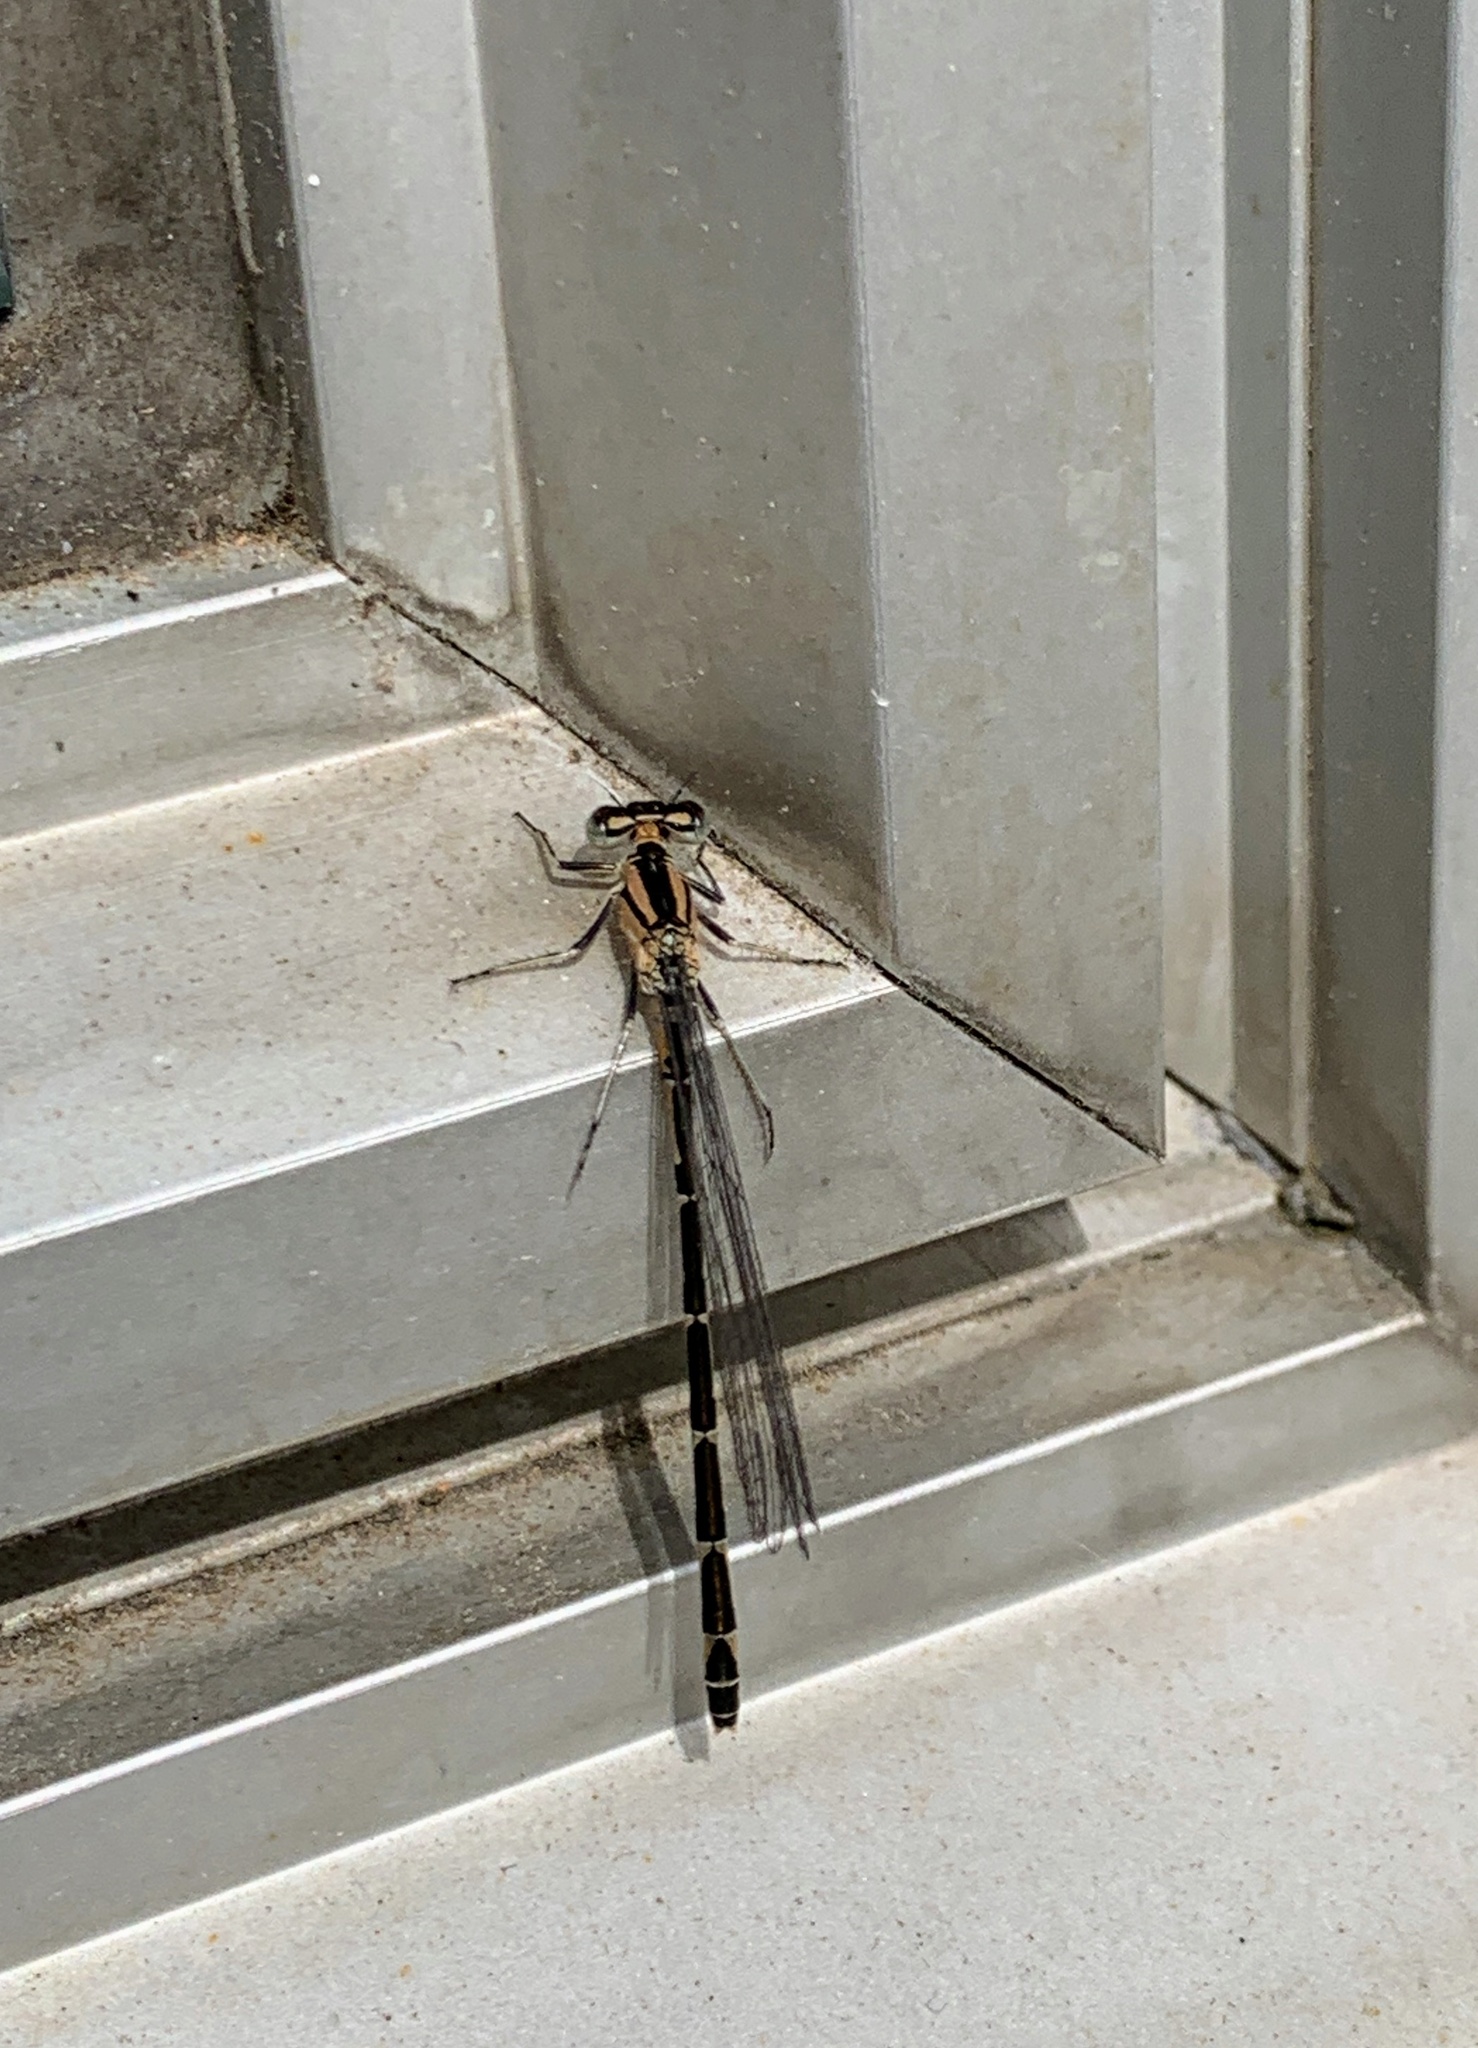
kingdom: Animalia
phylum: Arthropoda
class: Insecta
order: Odonata
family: Coenagrionidae
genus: Enallagma
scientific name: Enallagma cyathigerum
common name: Common blue damselfly
